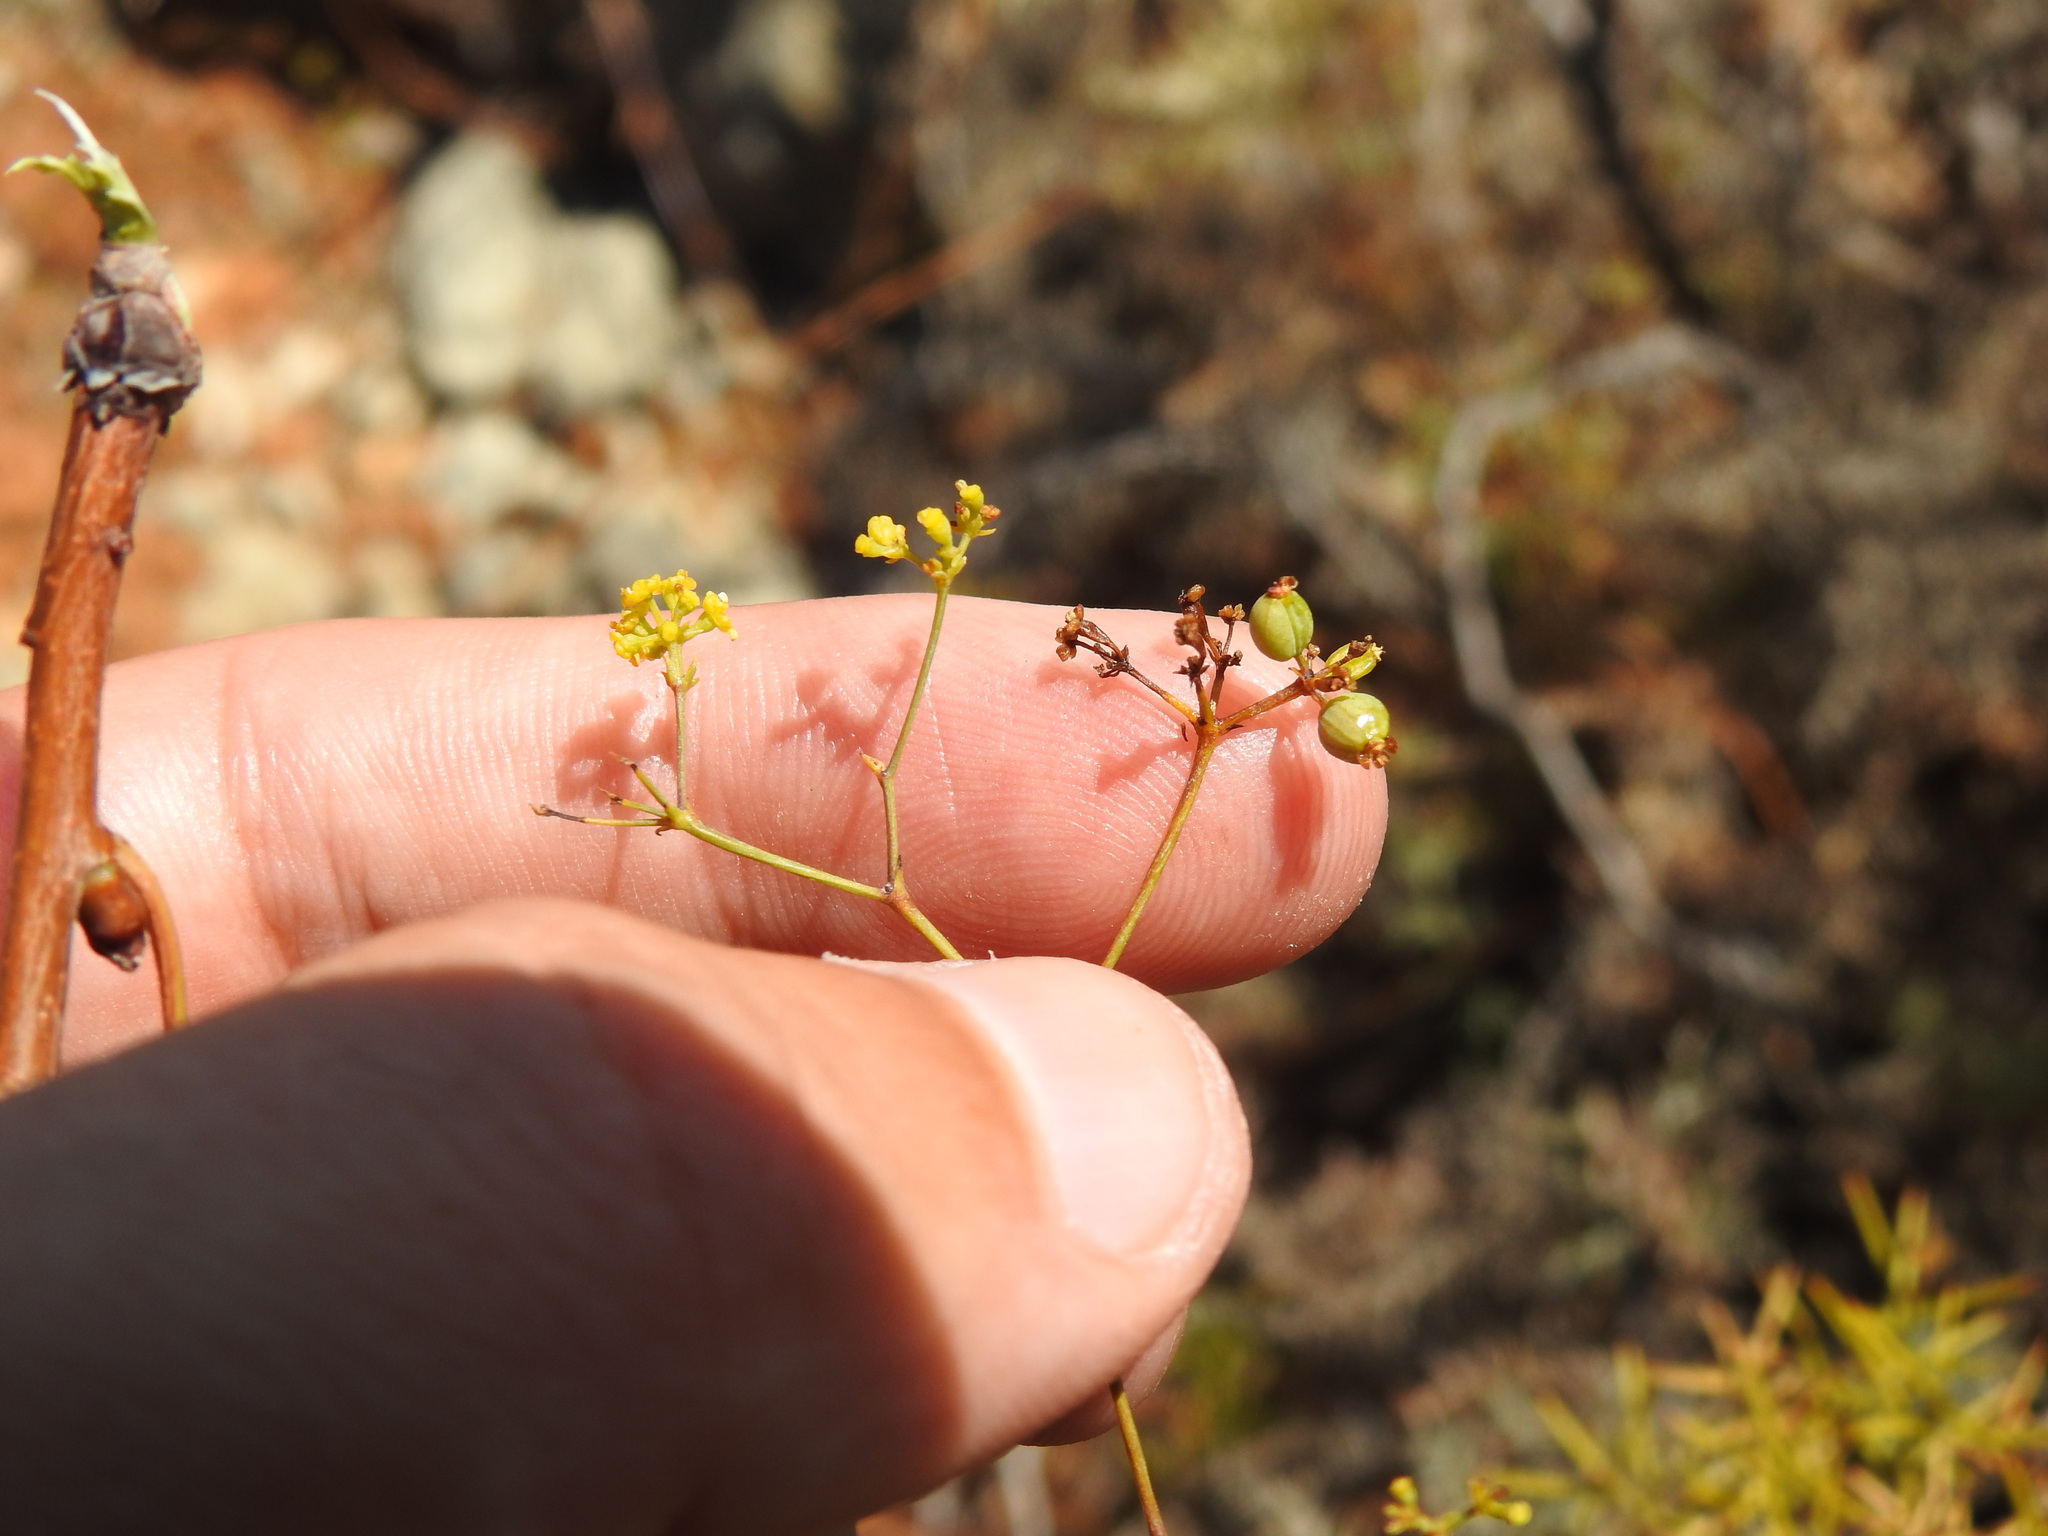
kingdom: Plantae
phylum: Tracheophyta
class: Magnoliopsida
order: Apiales
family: Apiaceae
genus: Bupleurum
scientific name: Bupleurum rigidum
